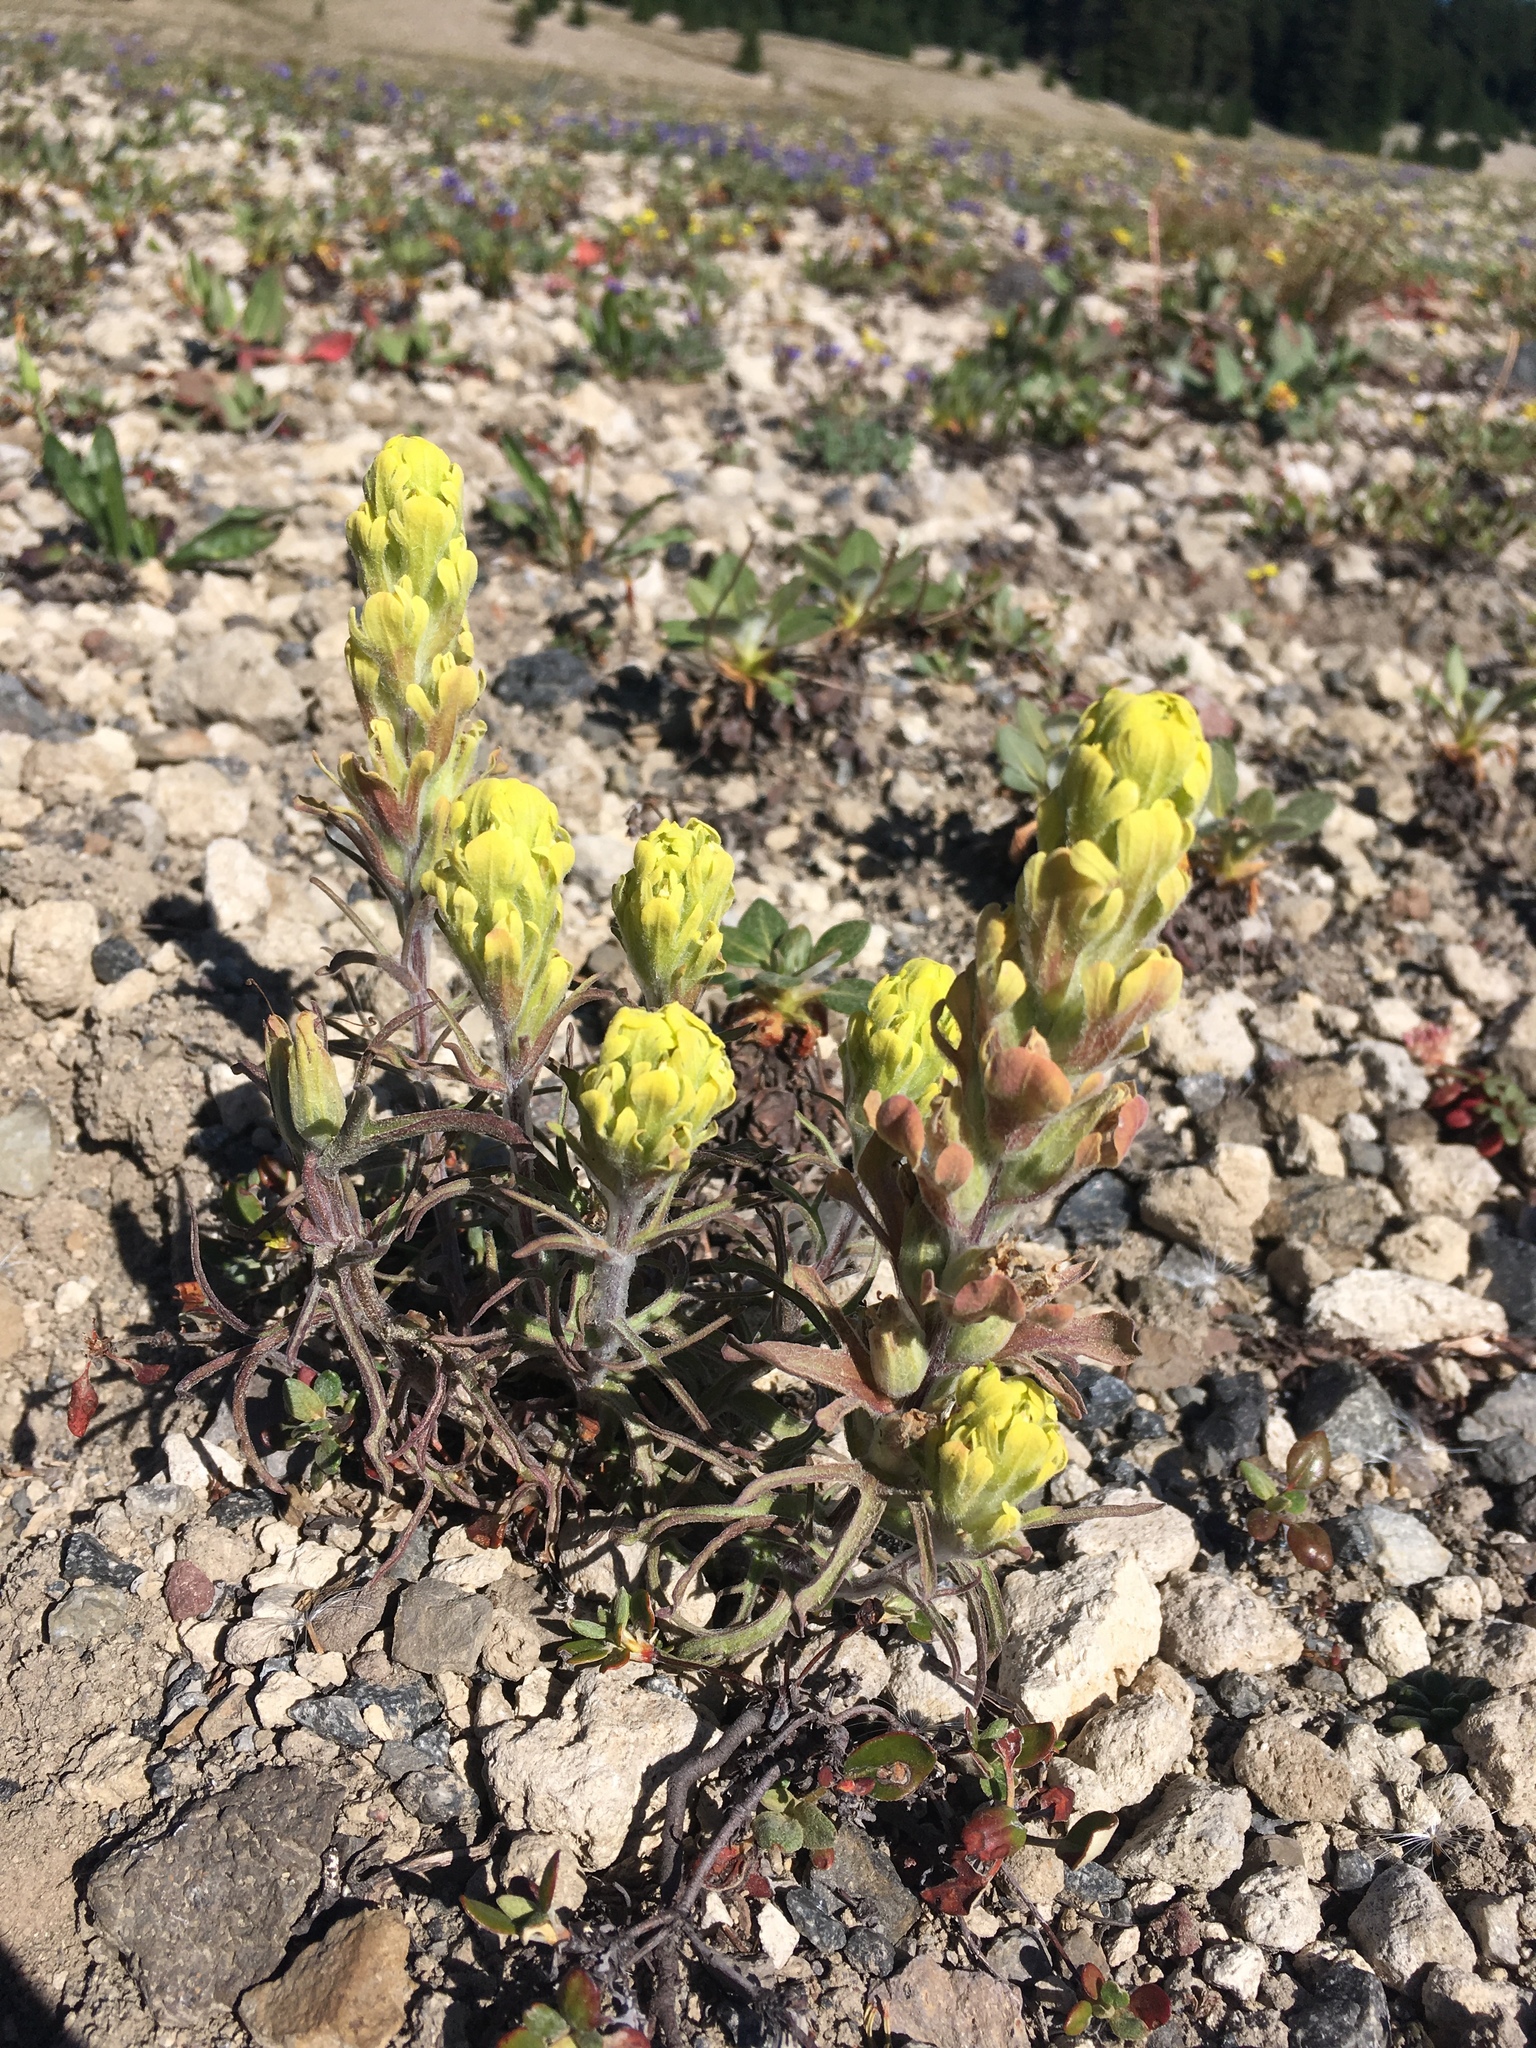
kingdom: Plantae
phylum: Tracheophyta
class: Magnoliopsida
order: Lamiales
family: Orobanchaceae
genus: Castilleja
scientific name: Castilleja arachnoidea
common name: Cobwebby indian paintbrush
